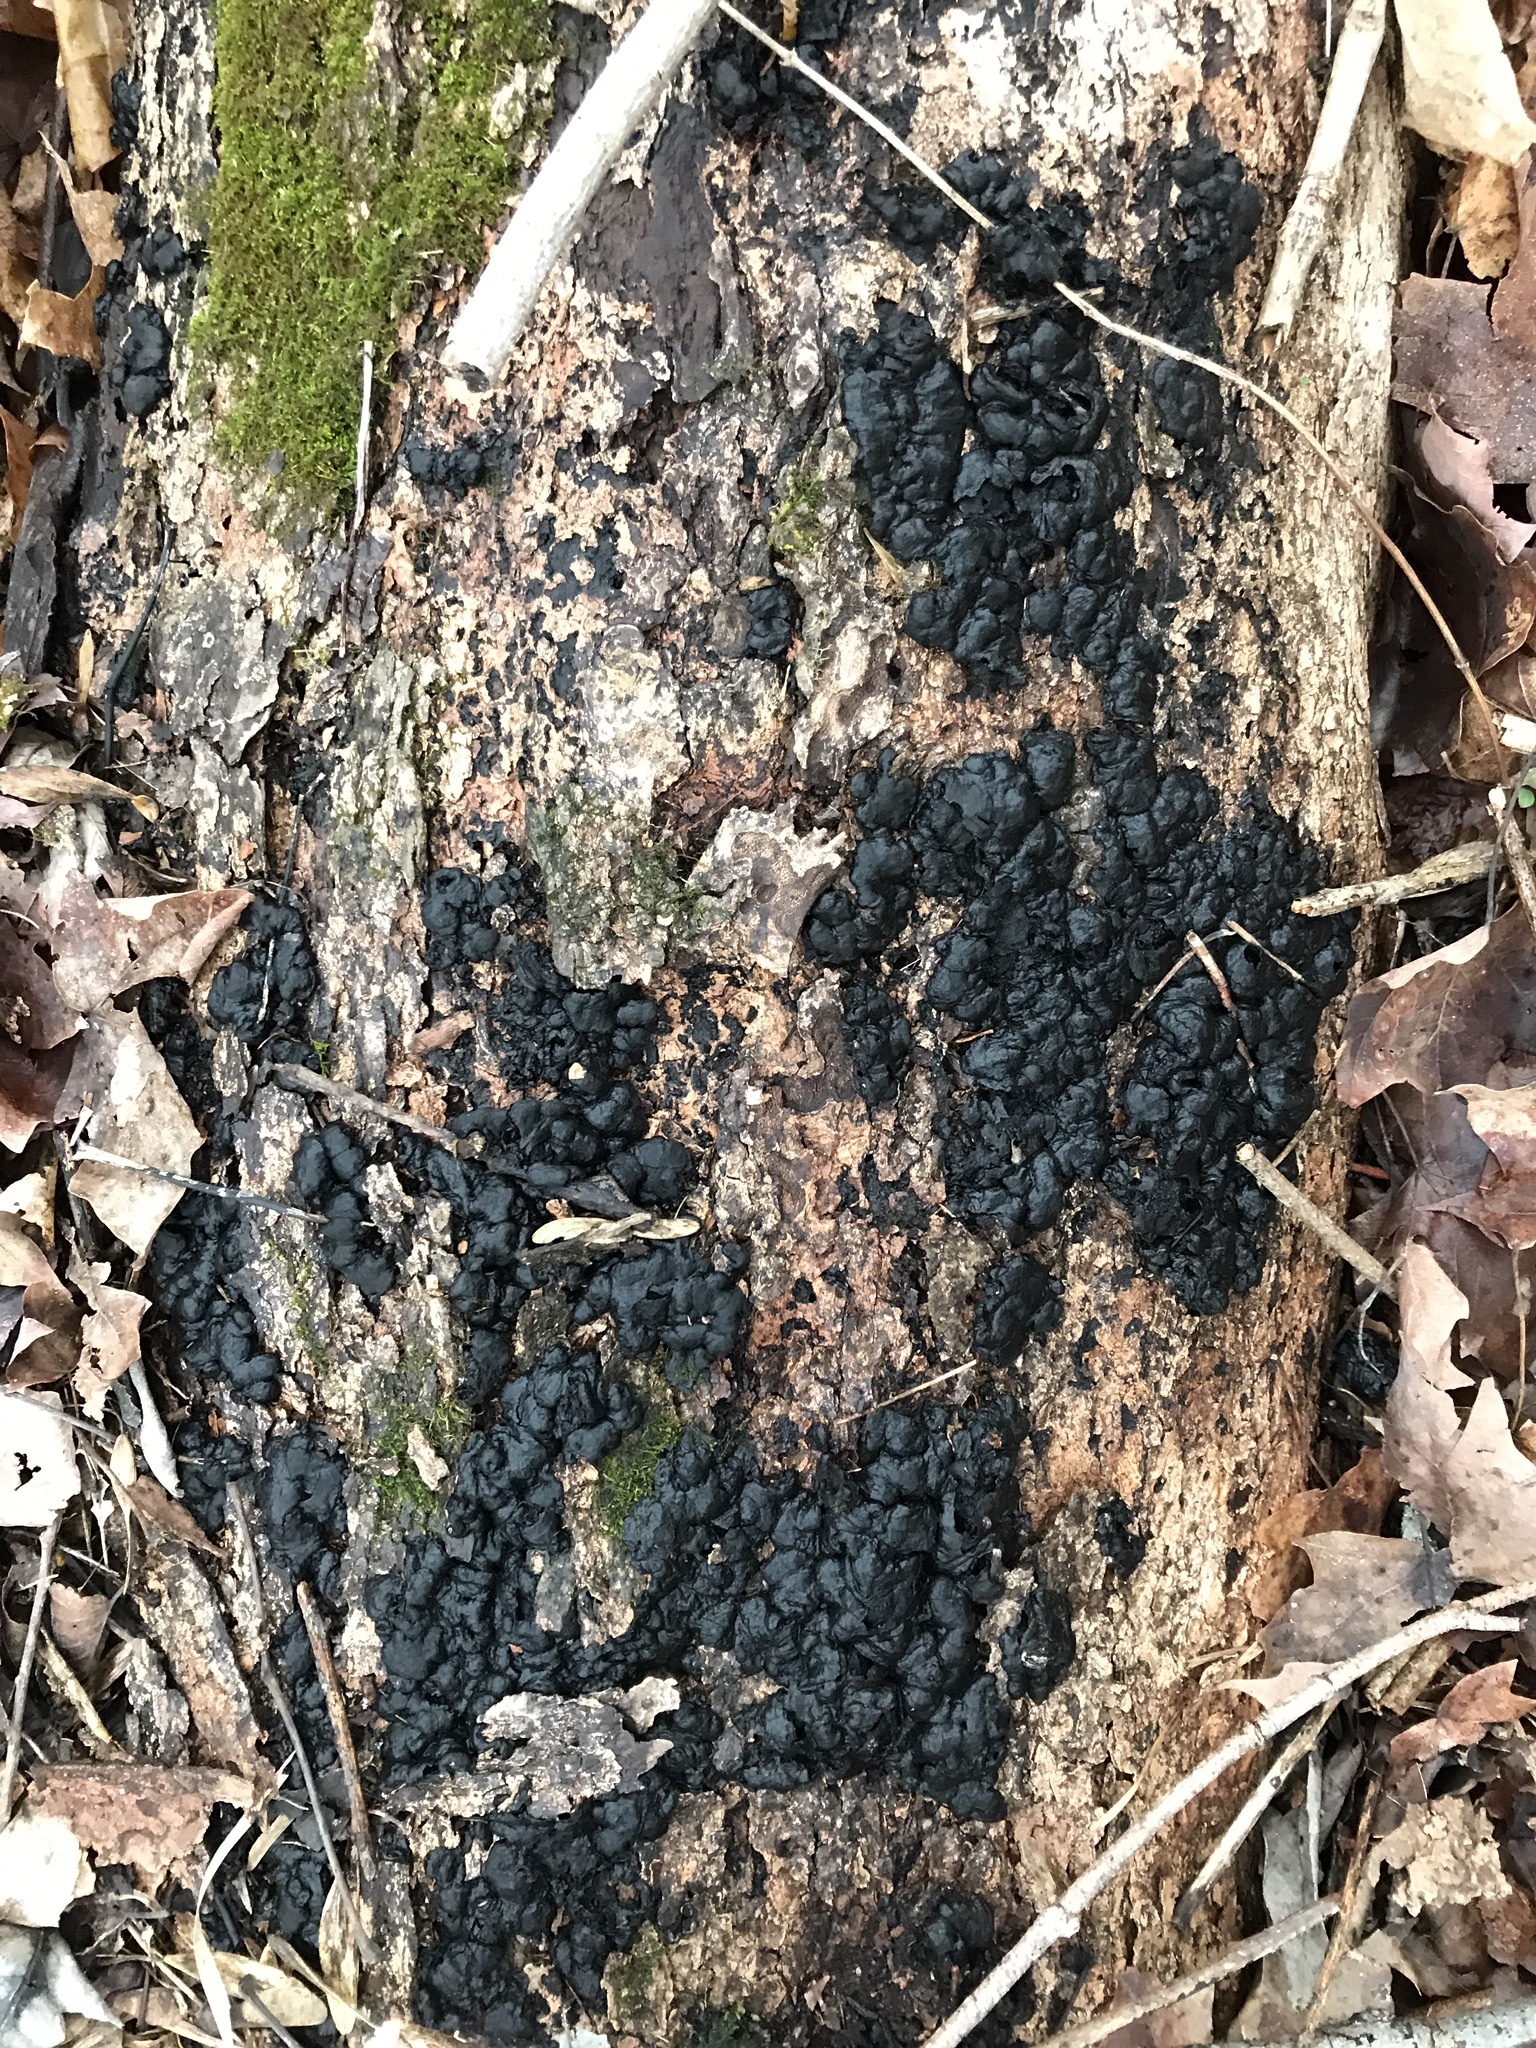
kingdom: Fungi
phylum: Basidiomycota
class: Agaricomycetes
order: Auriculariales
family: Auriculariaceae
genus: Exidia
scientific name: Exidia nigricans
